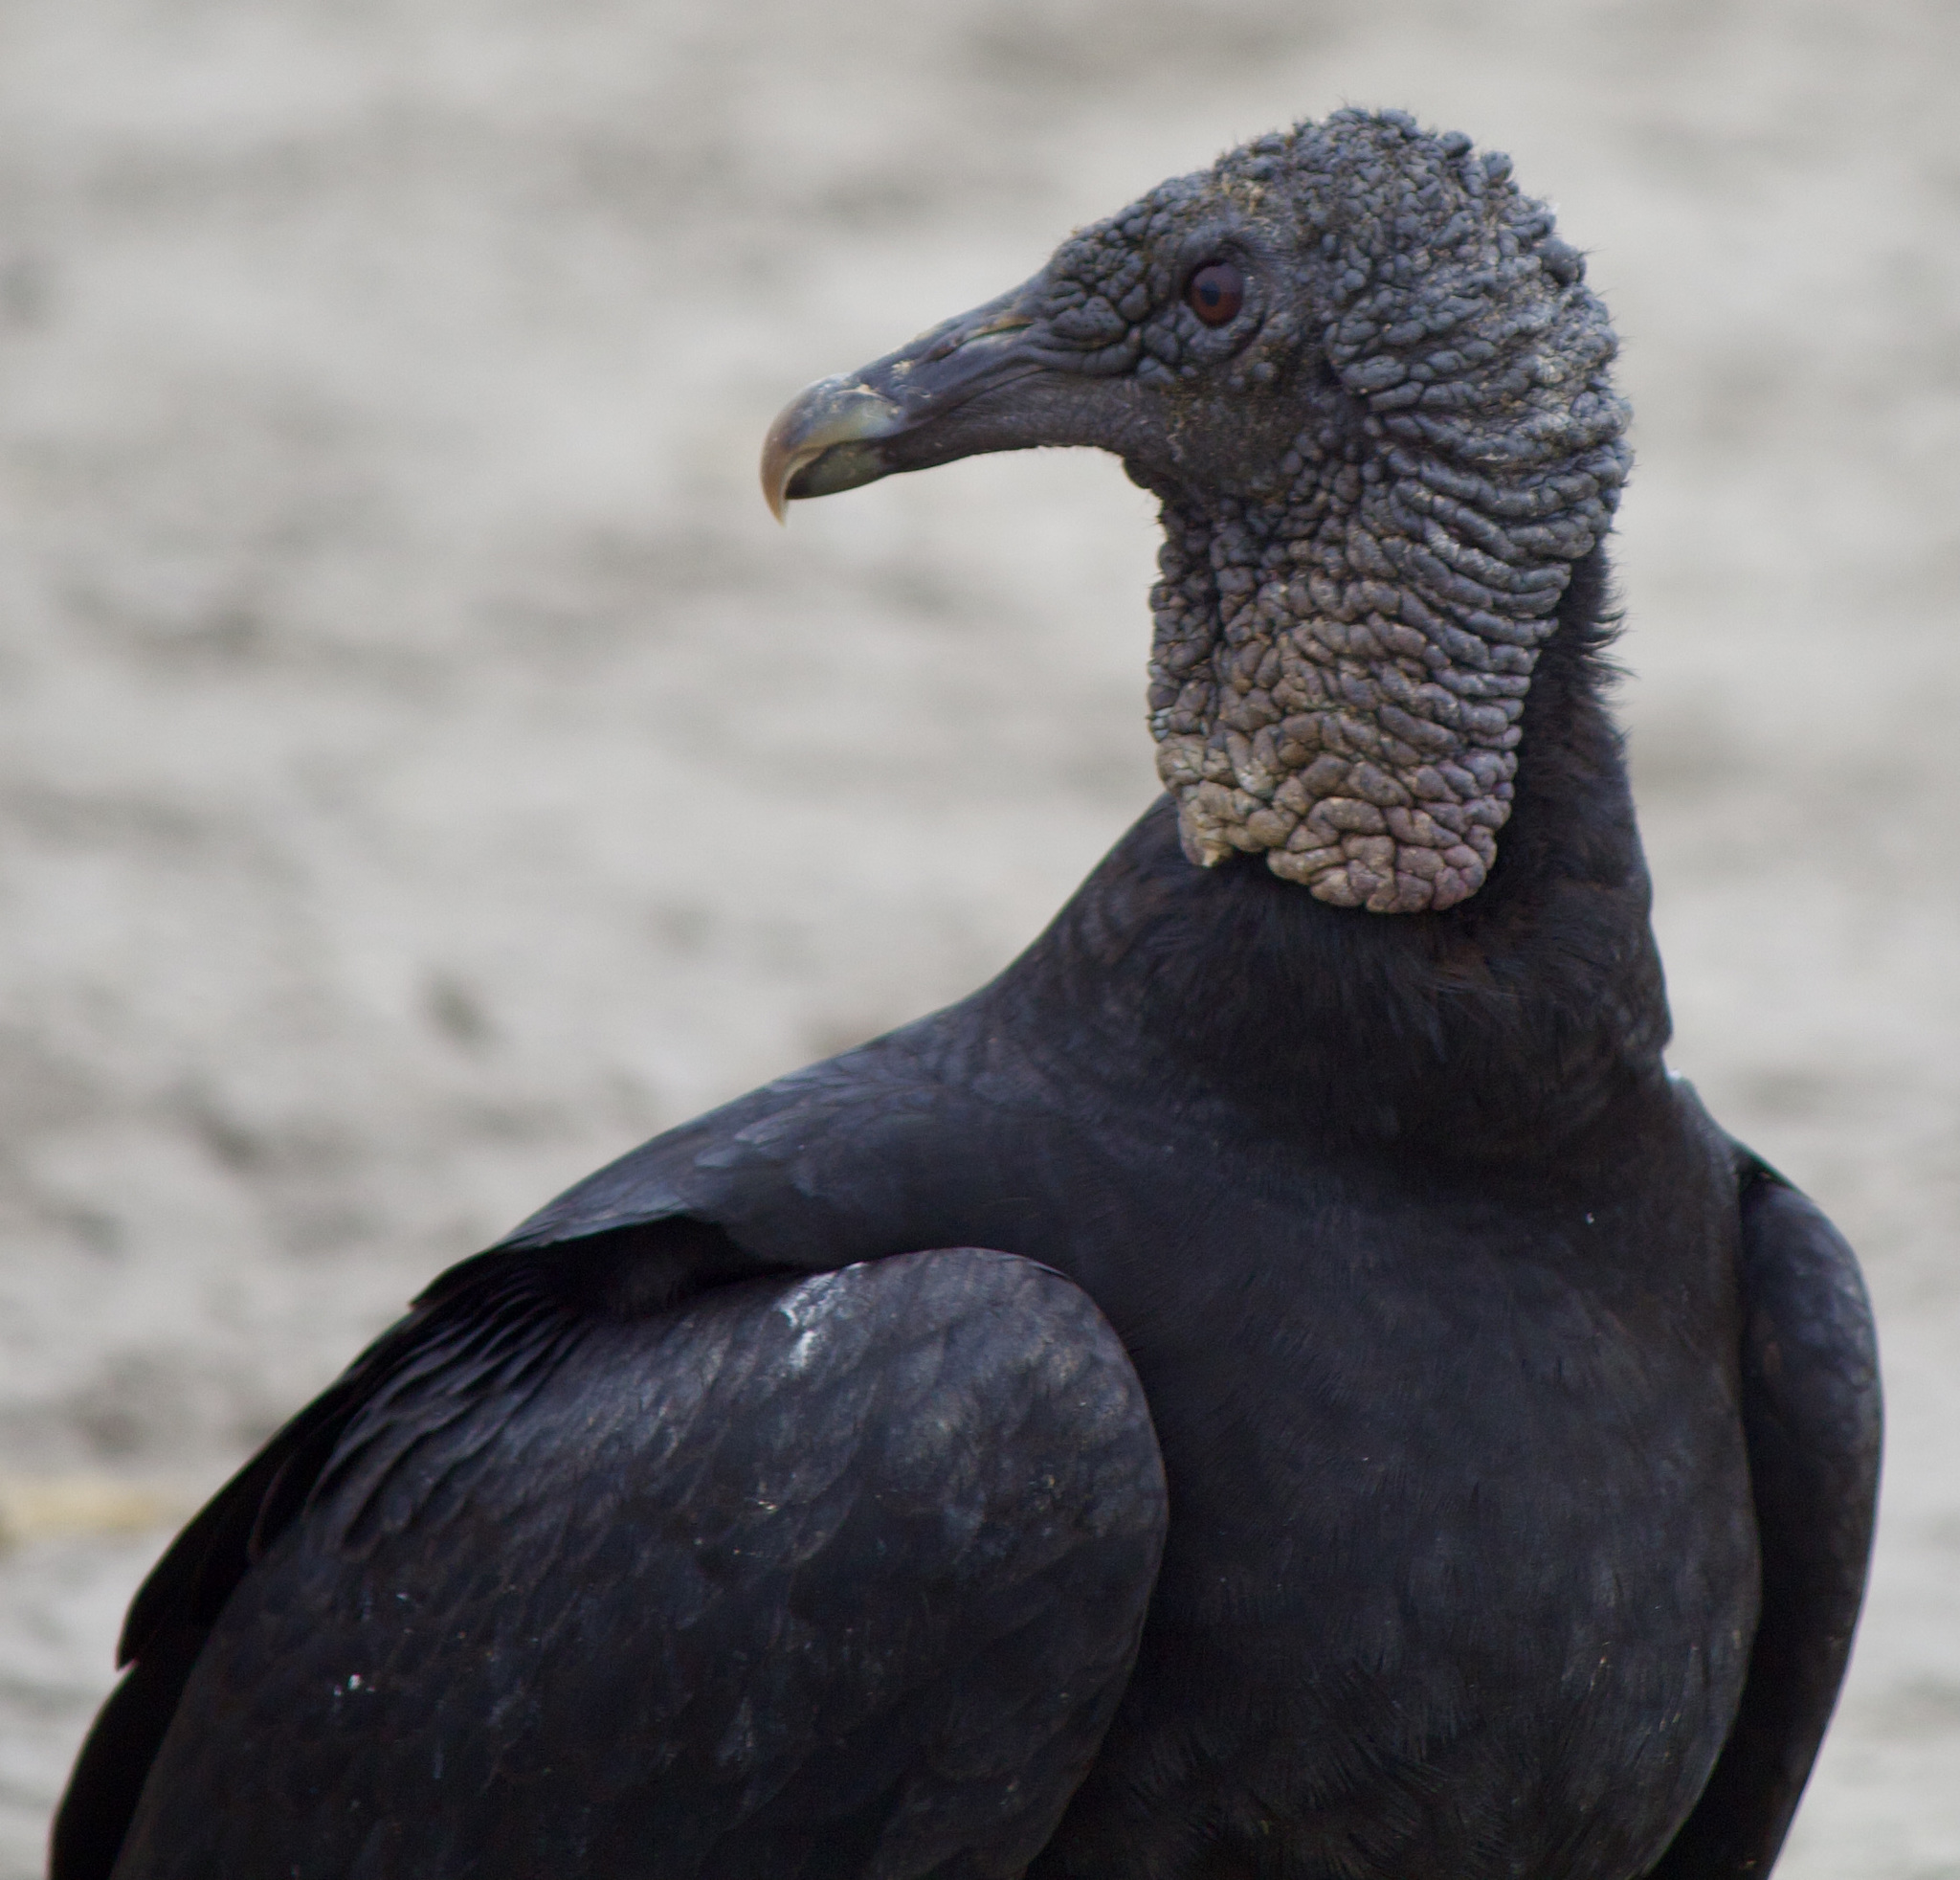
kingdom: Animalia
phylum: Chordata
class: Aves
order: Accipitriformes
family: Cathartidae
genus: Coragyps
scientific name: Coragyps atratus
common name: Black vulture
